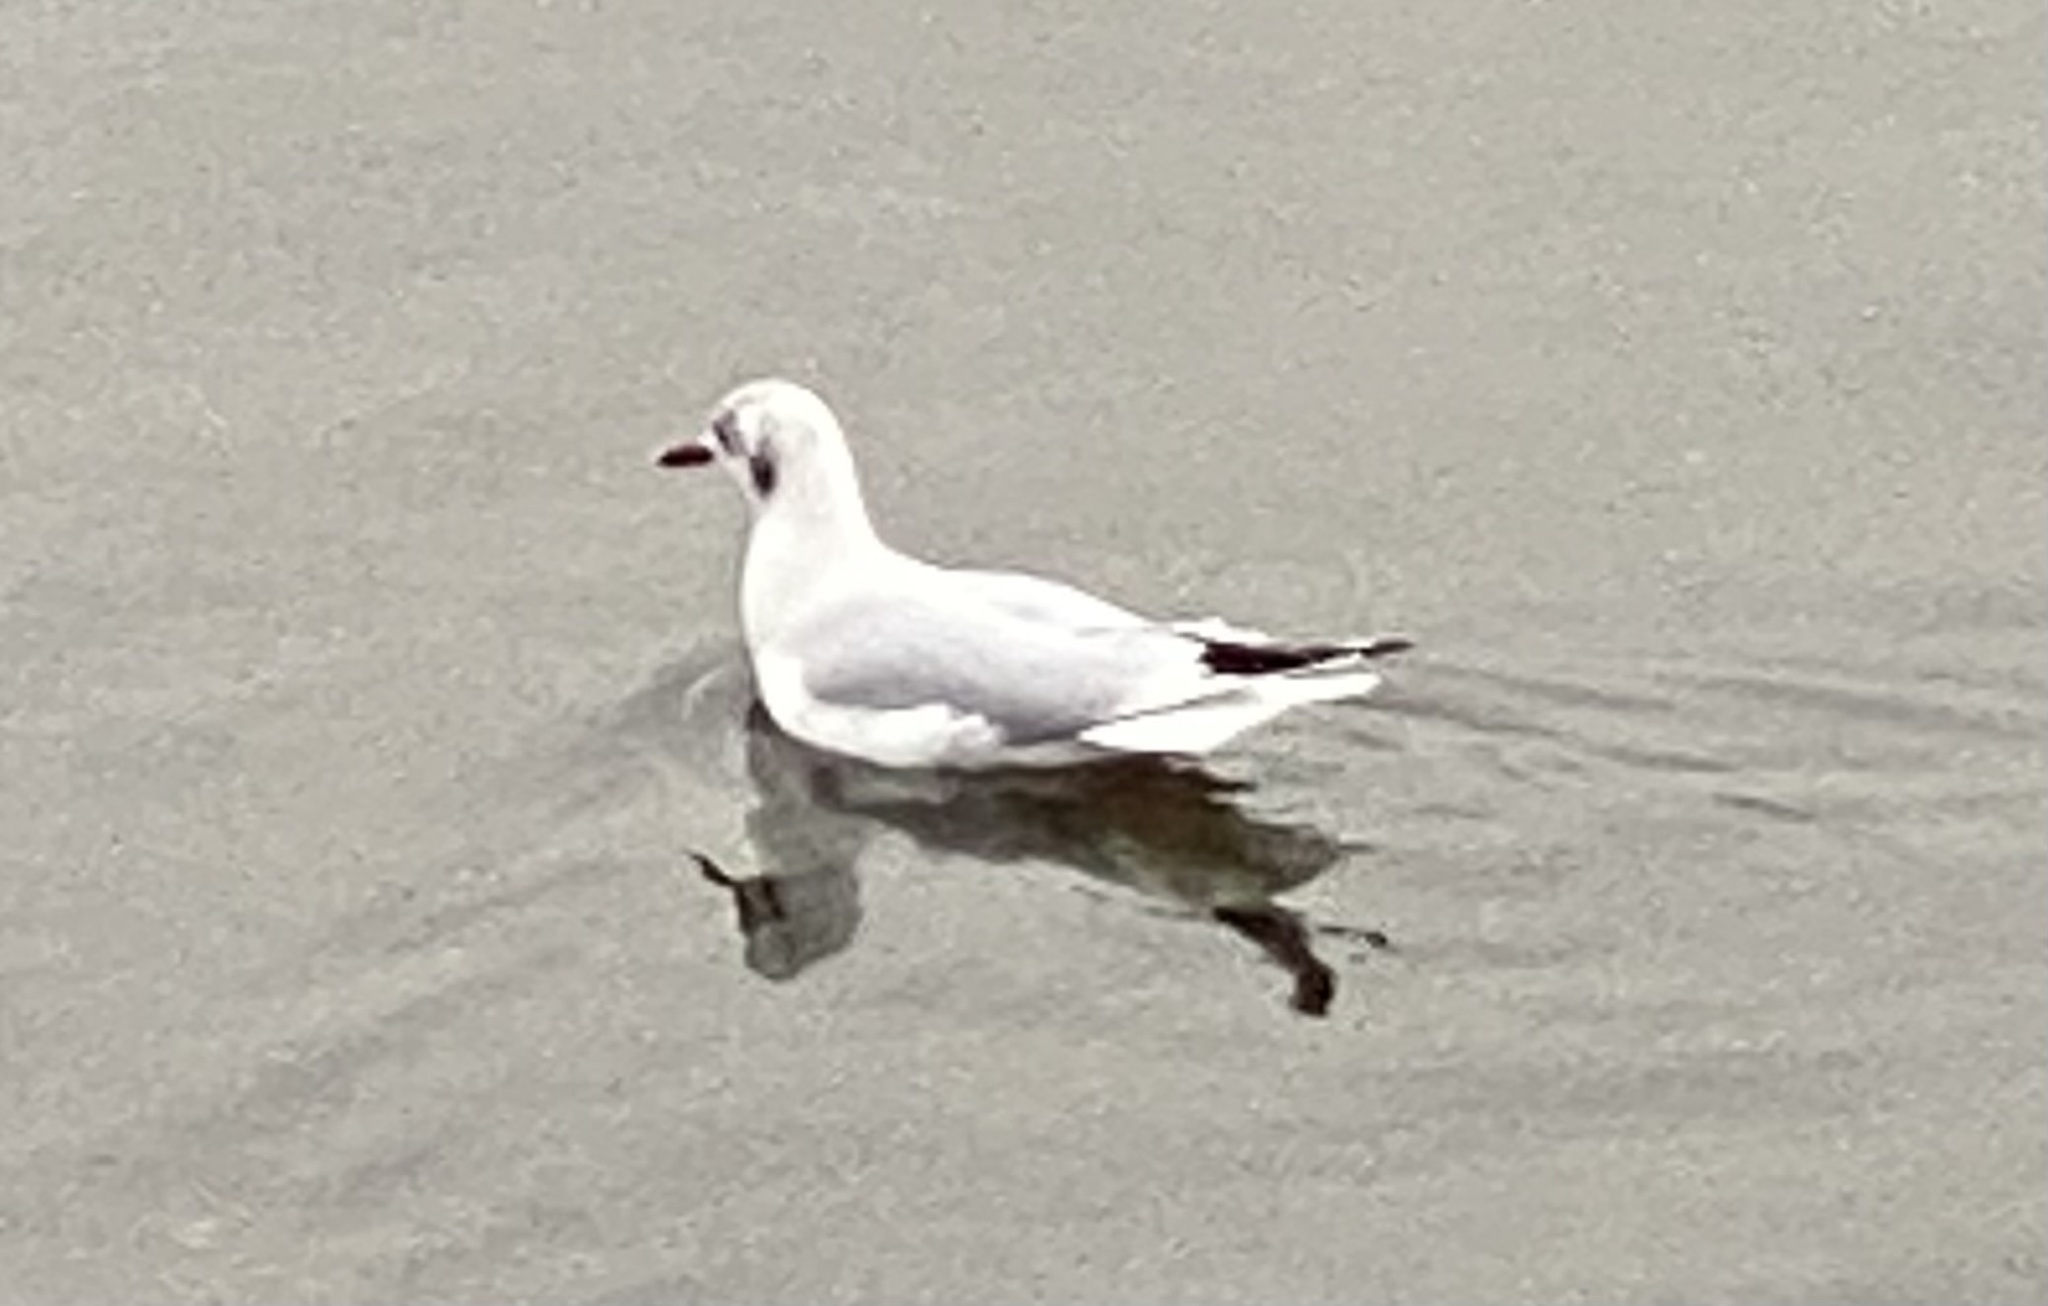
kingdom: Animalia
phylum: Chordata
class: Aves
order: Charadriiformes
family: Laridae
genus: Chroicocephalus
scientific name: Chroicocephalus ridibundus
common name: Black-headed gull
